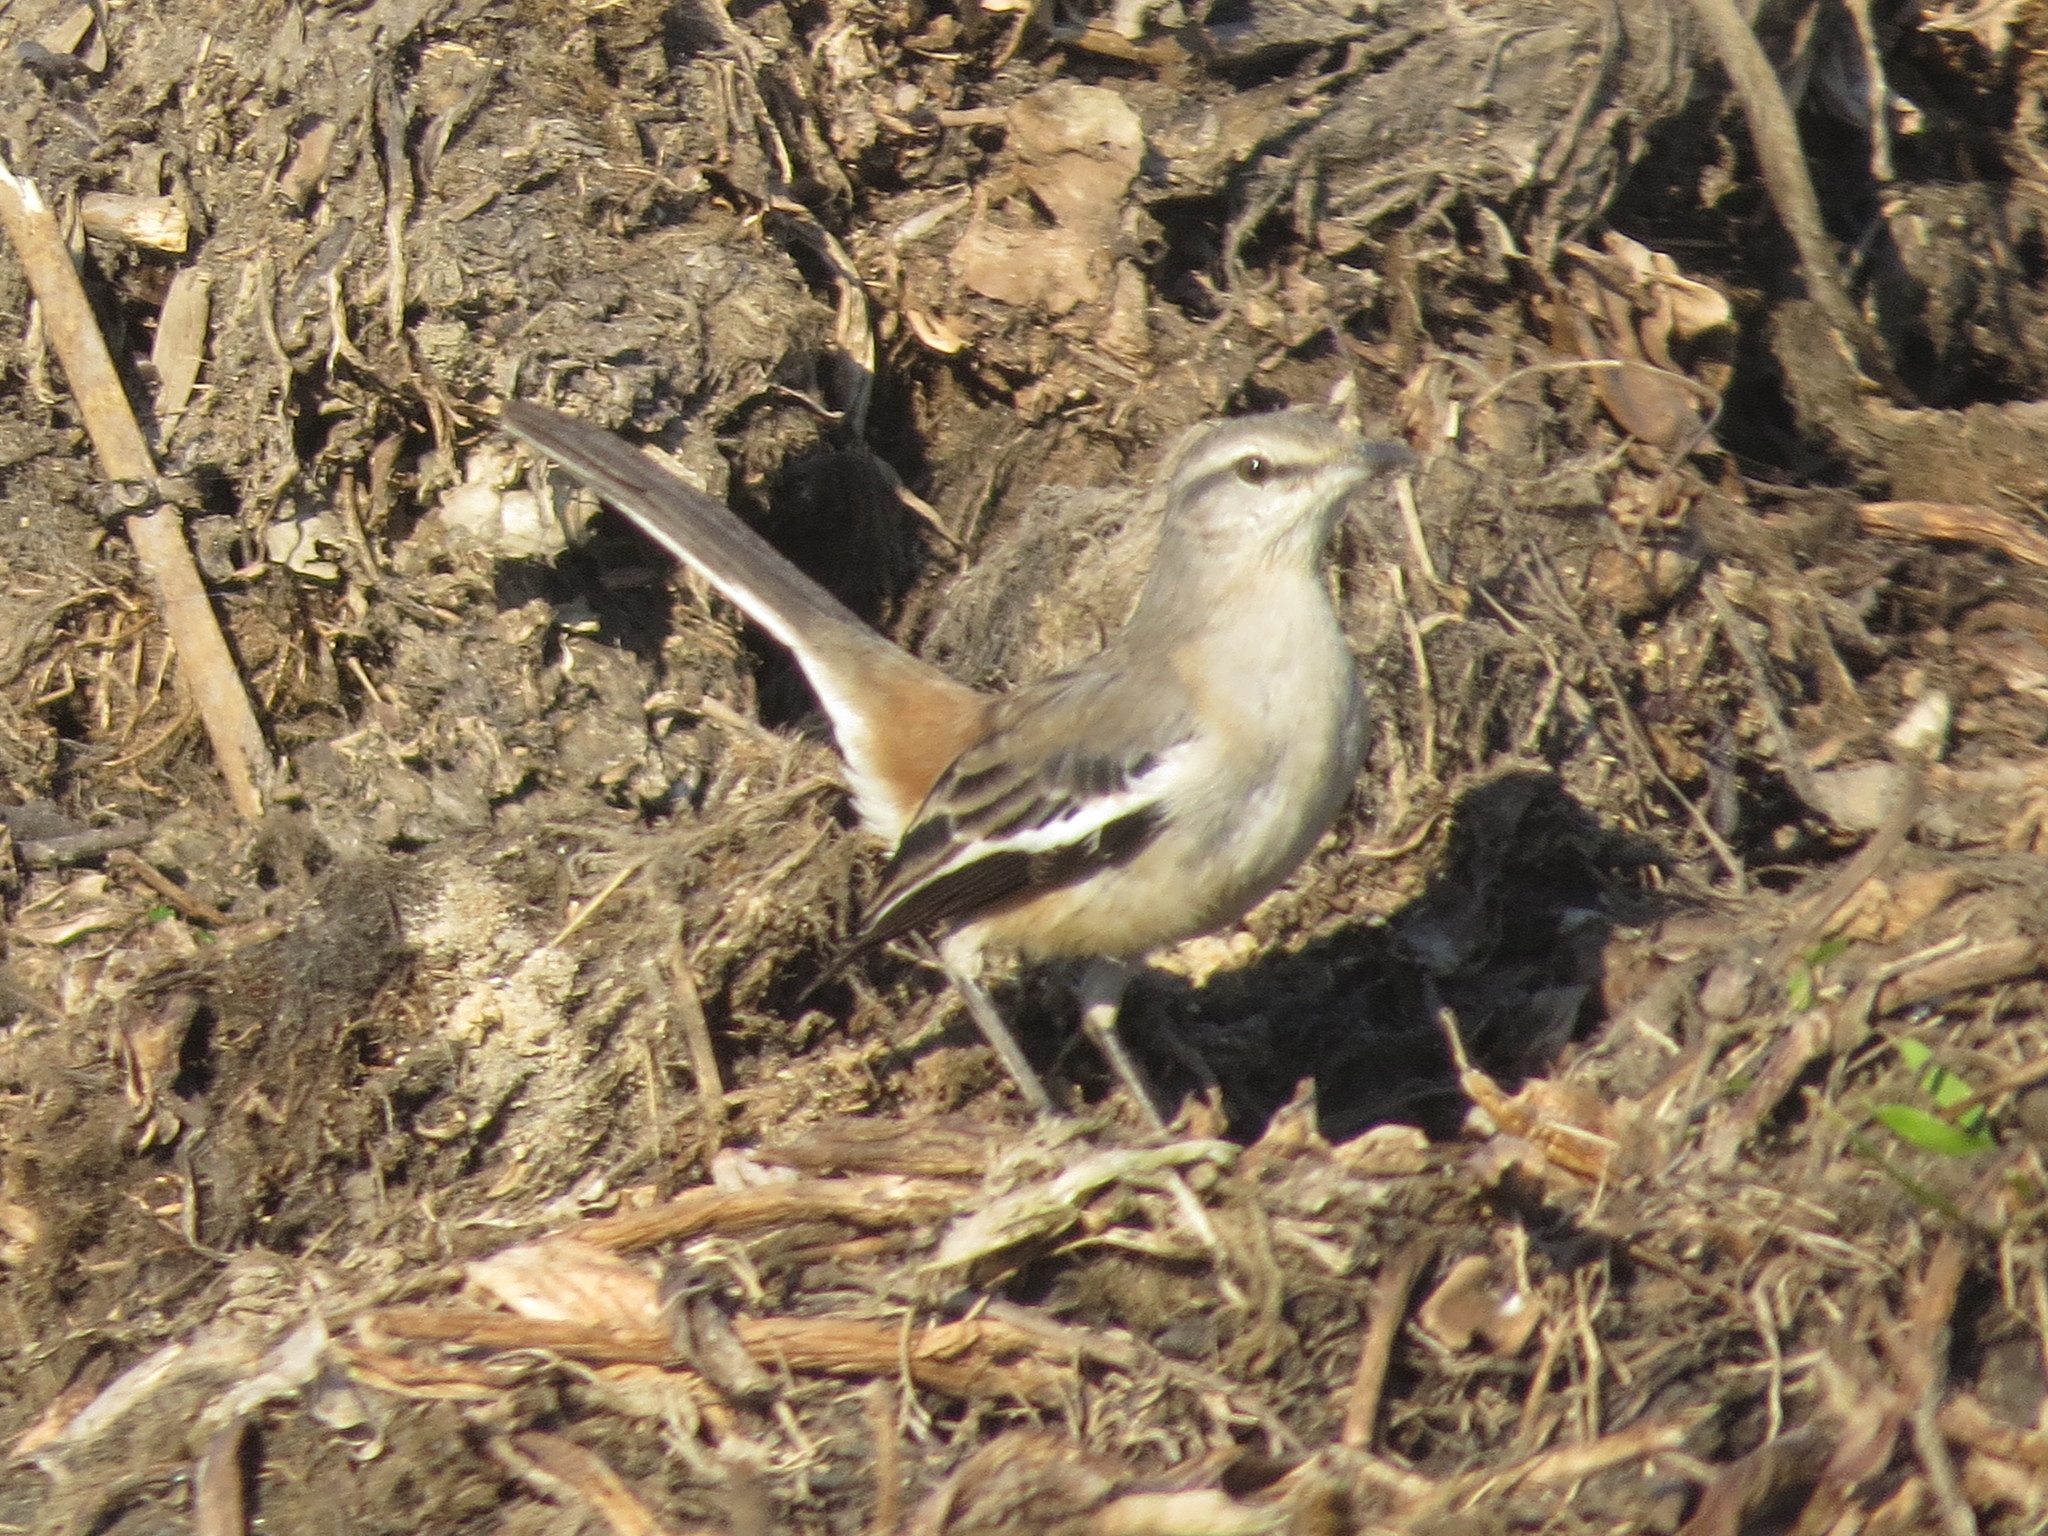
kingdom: Animalia
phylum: Chordata
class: Aves
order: Passeriformes
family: Mimidae
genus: Mimus
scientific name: Mimus triurus
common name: White-banded mockingbird
